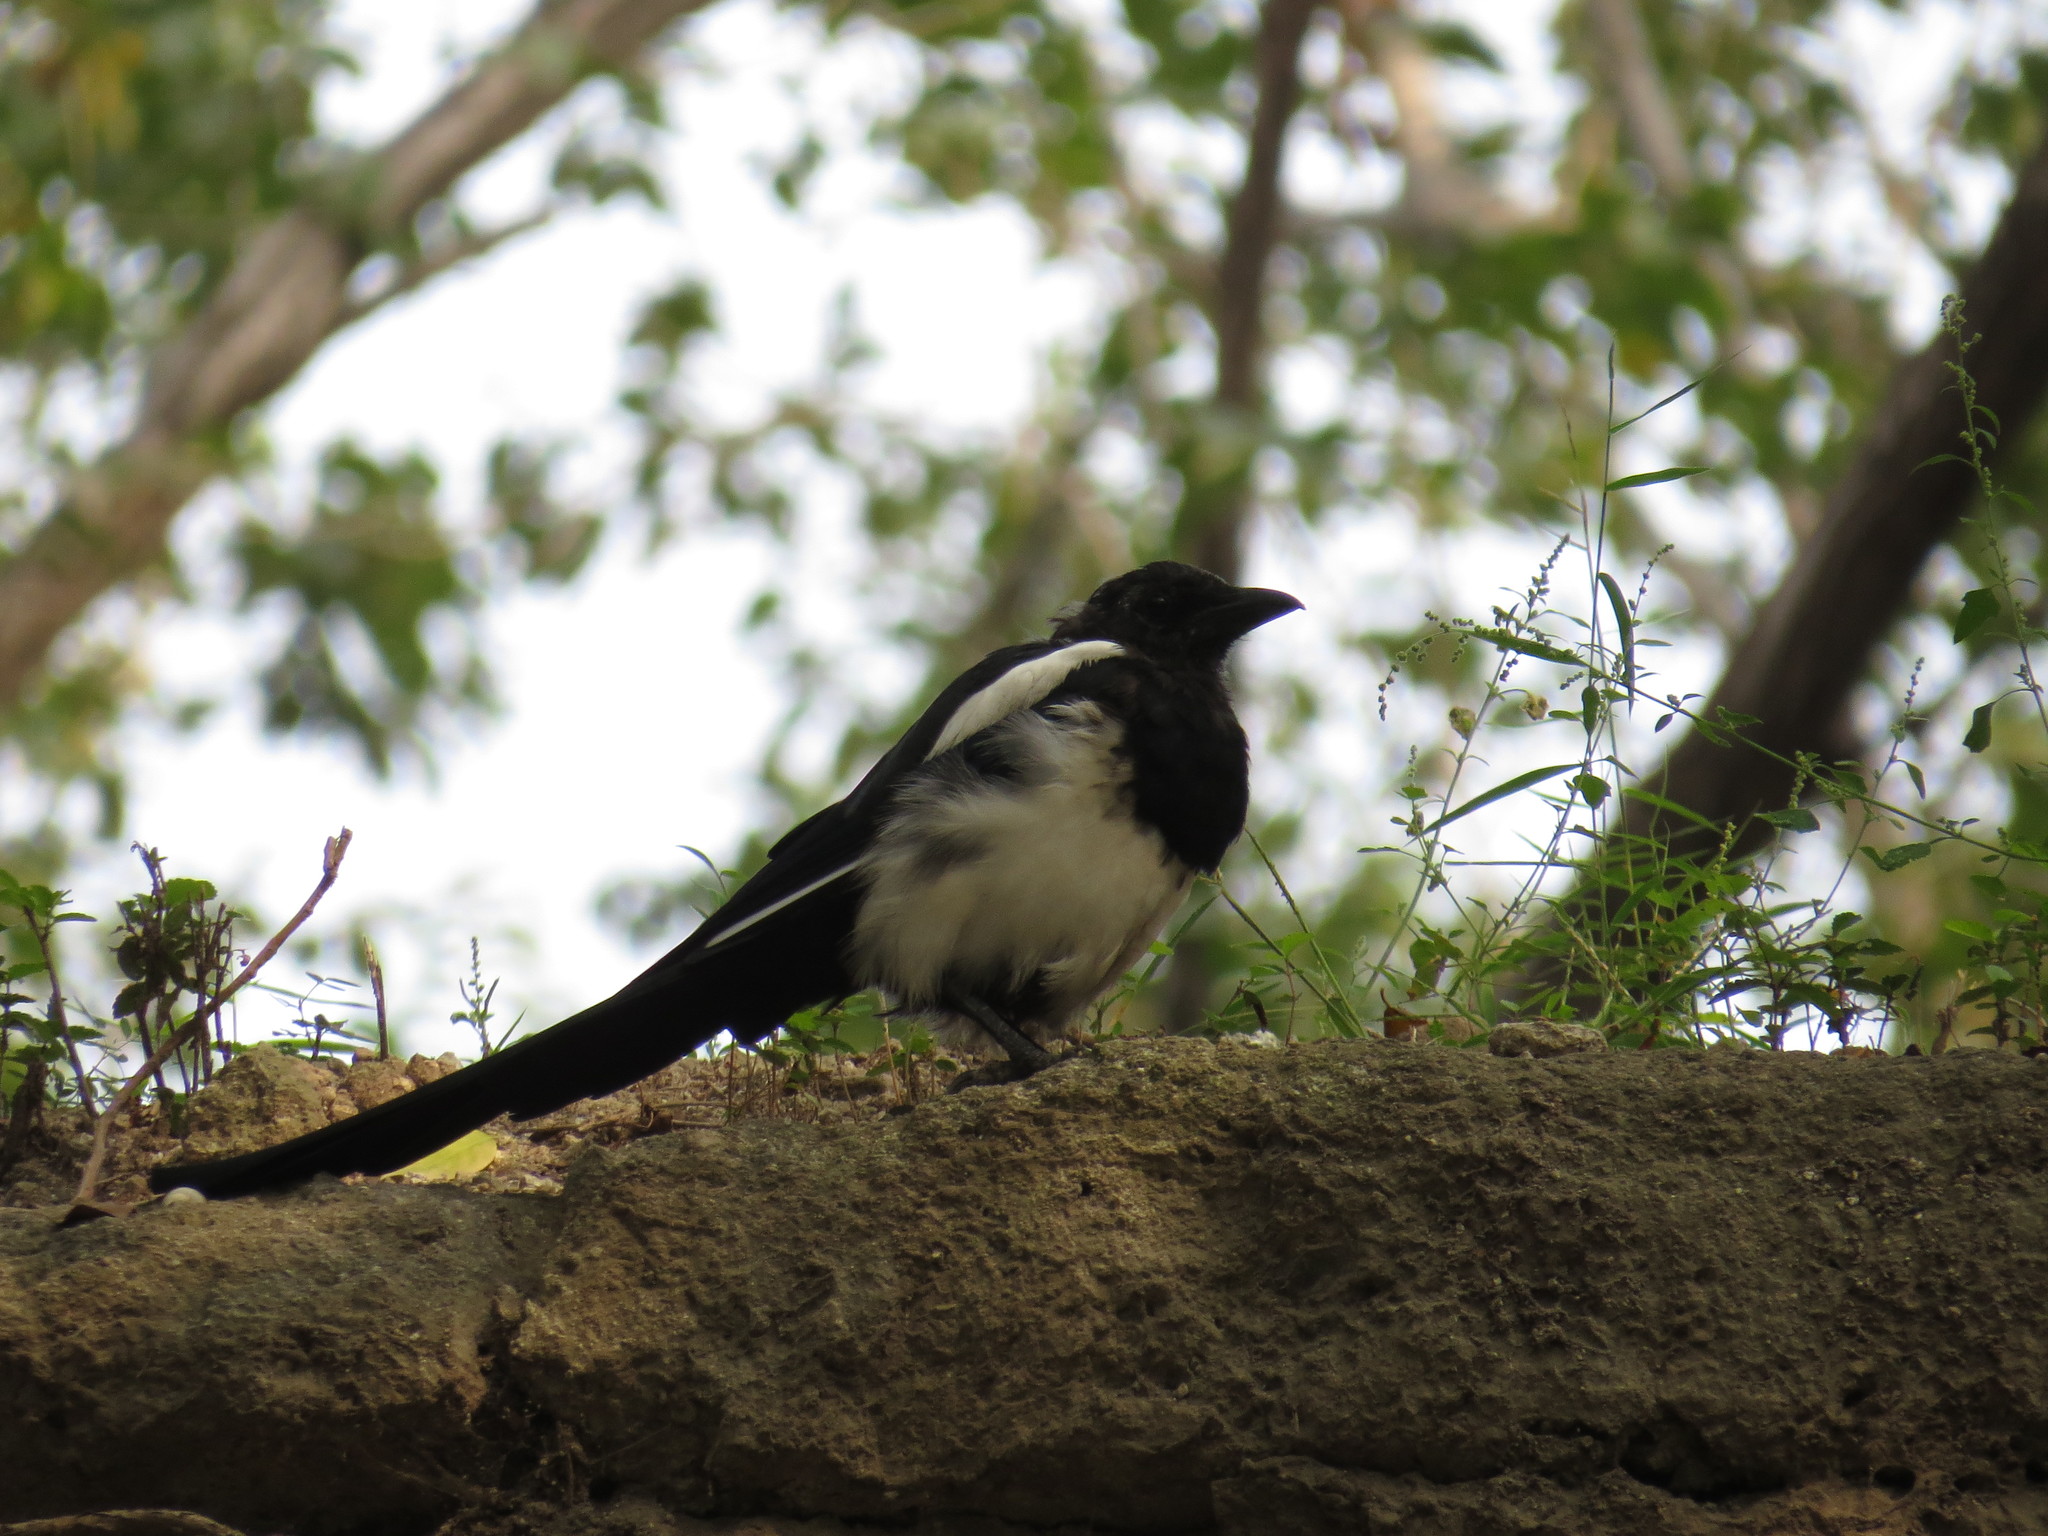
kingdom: Animalia
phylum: Chordata
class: Aves
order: Passeriformes
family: Corvidae
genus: Pica
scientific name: Pica serica
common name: Oriental magpie
